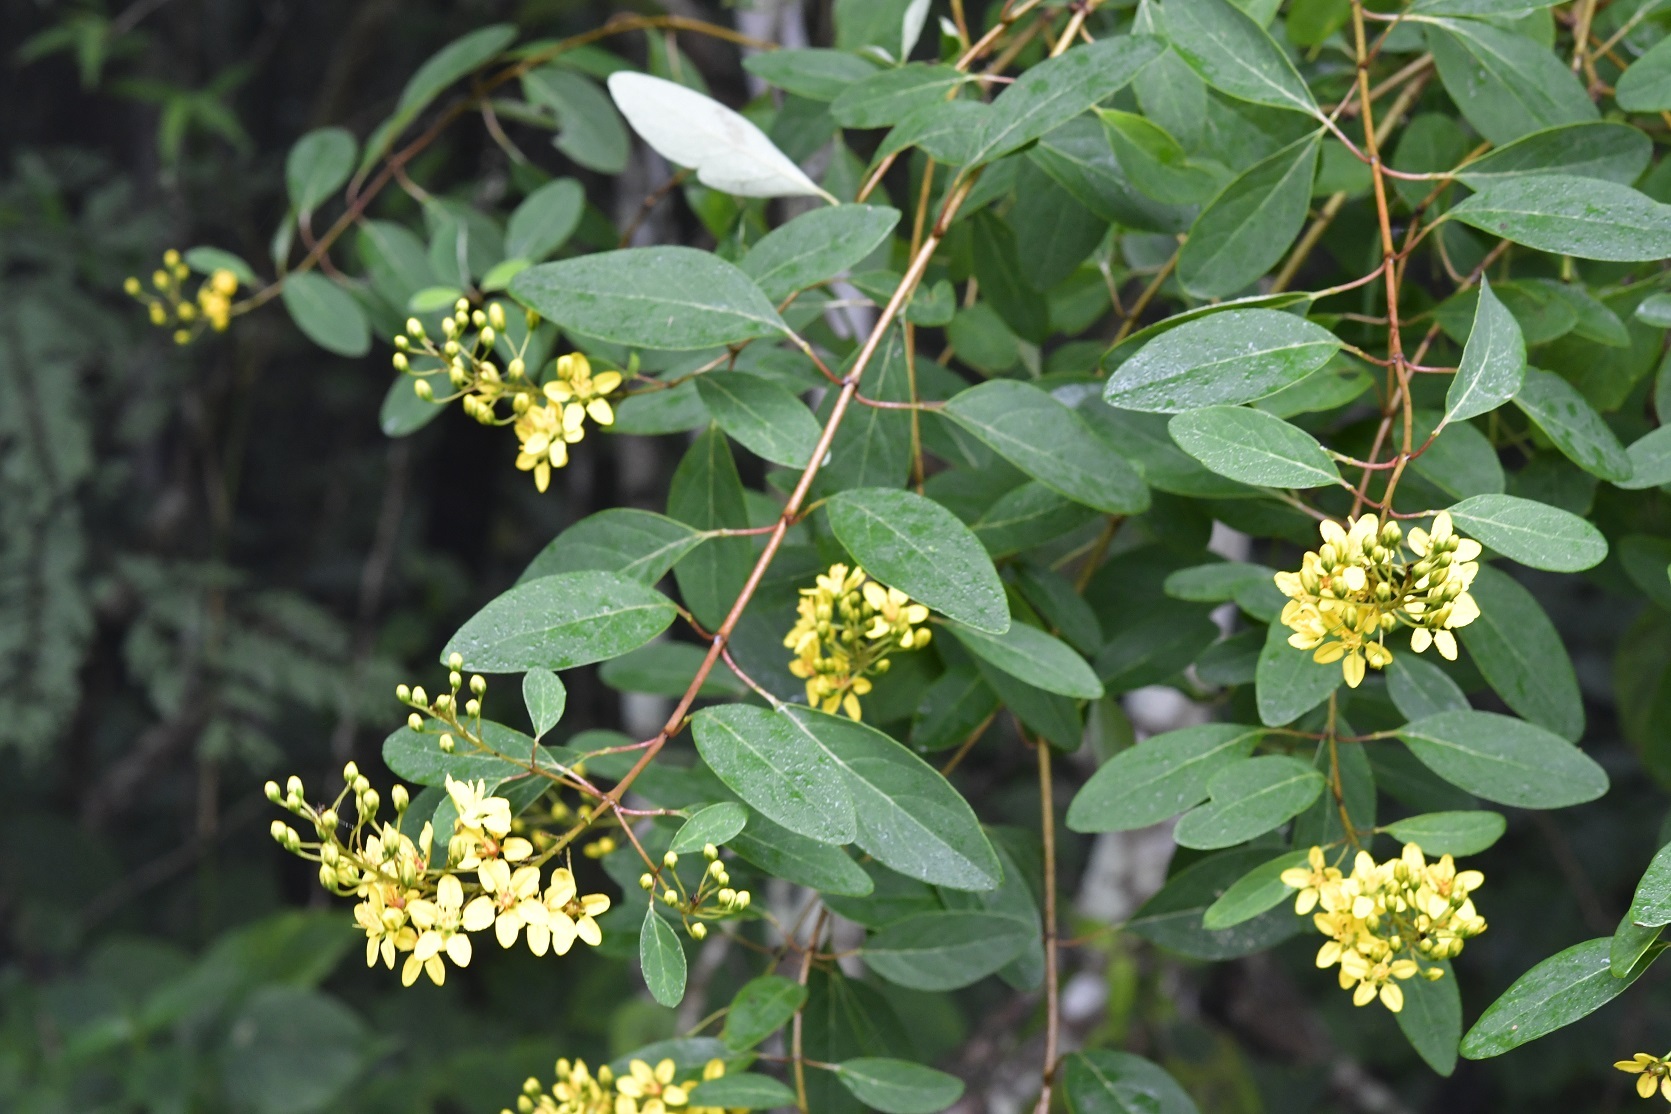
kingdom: Plantae
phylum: Tracheophyta
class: Magnoliopsida
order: Malpighiales
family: Malpighiaceae
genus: Galphimia
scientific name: Galphimia speciosa
